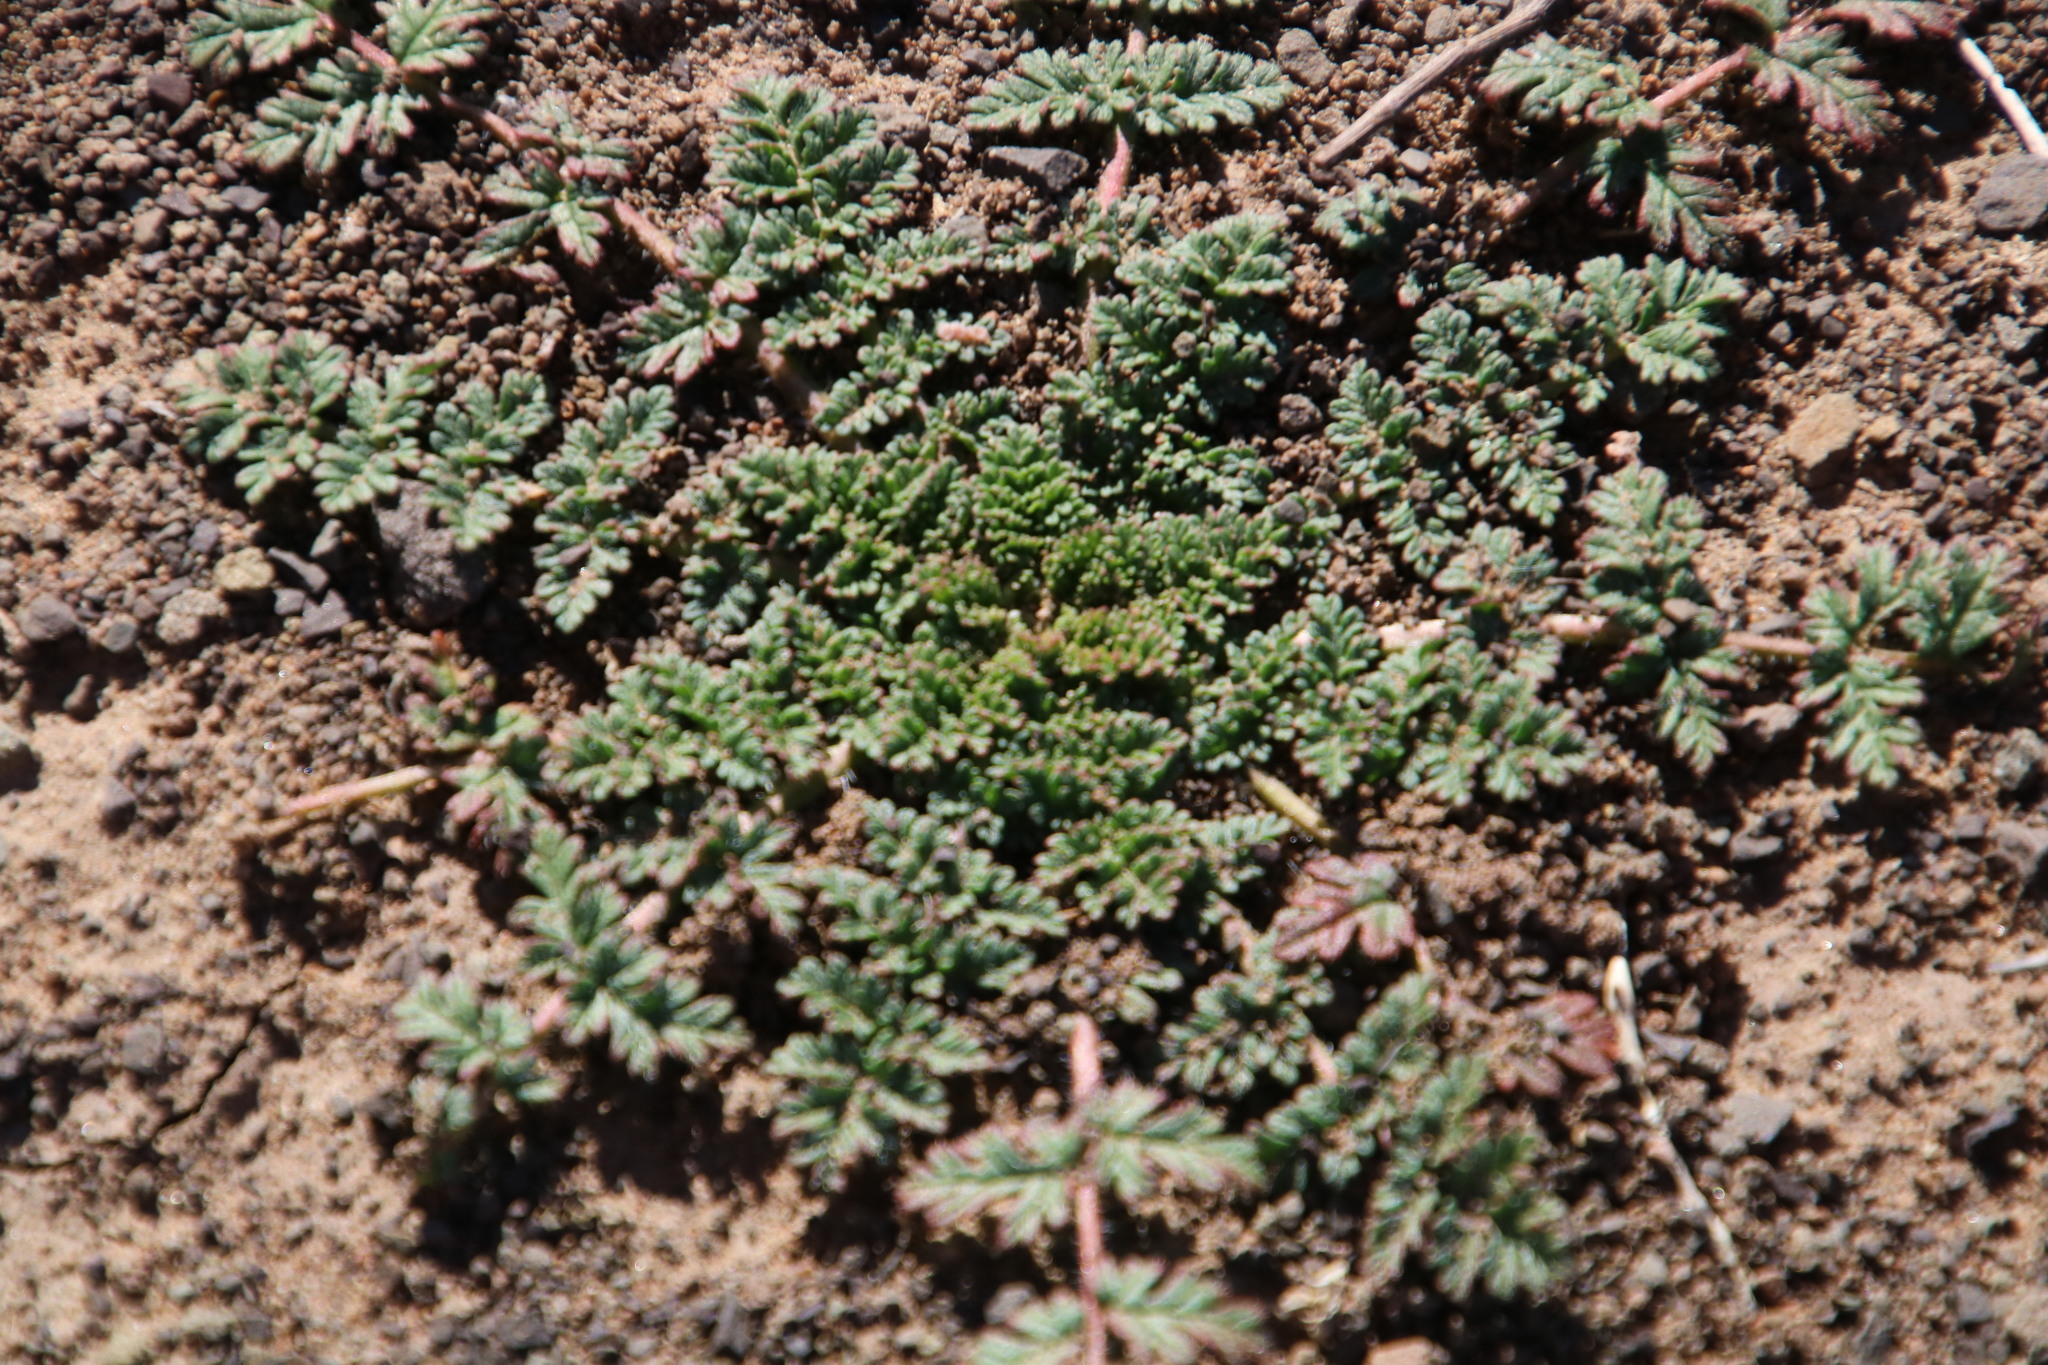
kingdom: Plantae
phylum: Tracheophyta
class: Magnoliopsida
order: Geraniales
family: Geraniaceae
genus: Erodium
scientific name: Erodium cicutarium
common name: Common stork's-bill
